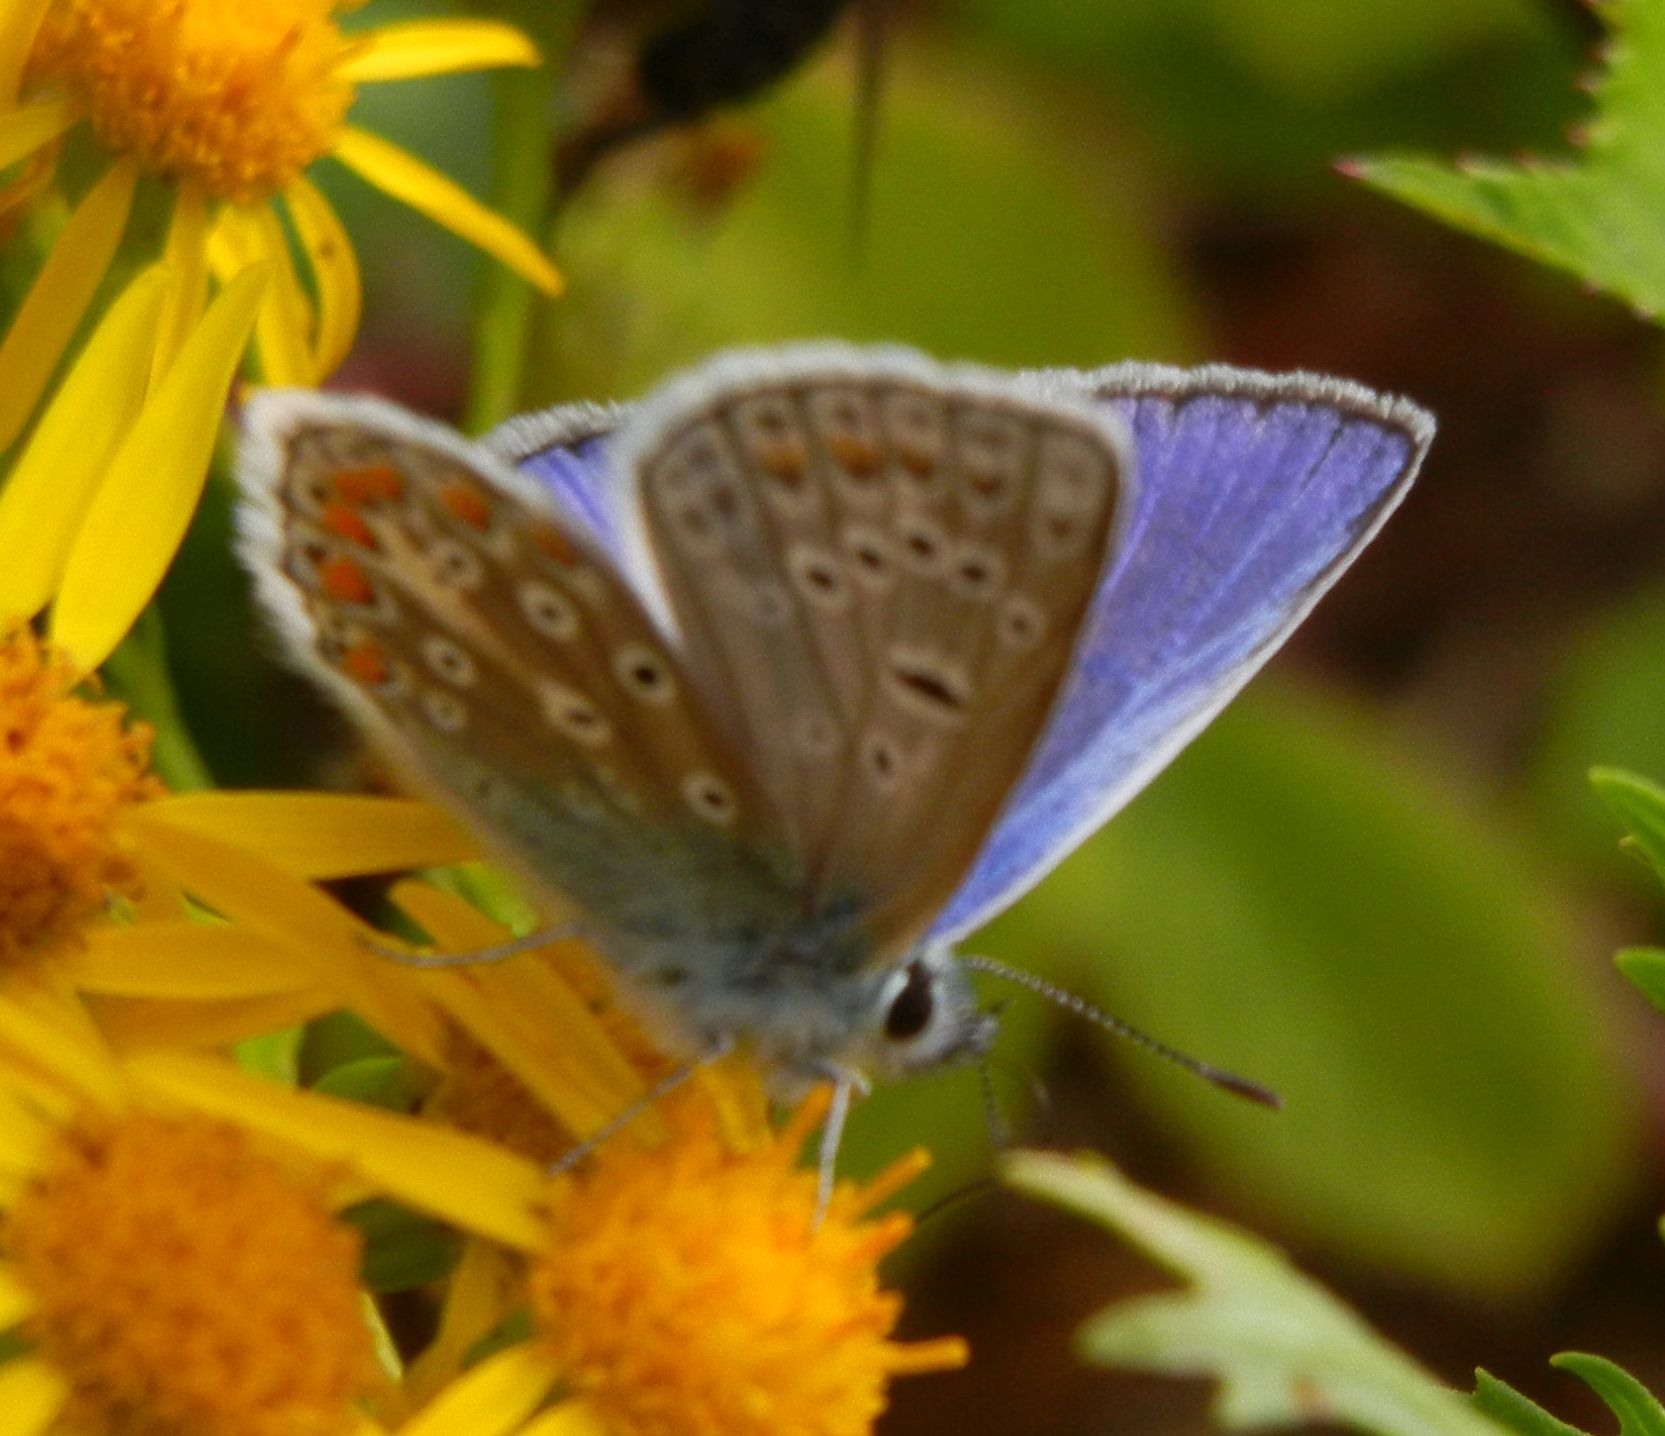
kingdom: Animalia
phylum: Arthropoda
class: Insecta
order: Lepidoptera
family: Lycaenidae
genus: Polyommatus
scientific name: Polyommatus icarus
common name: Common blue
